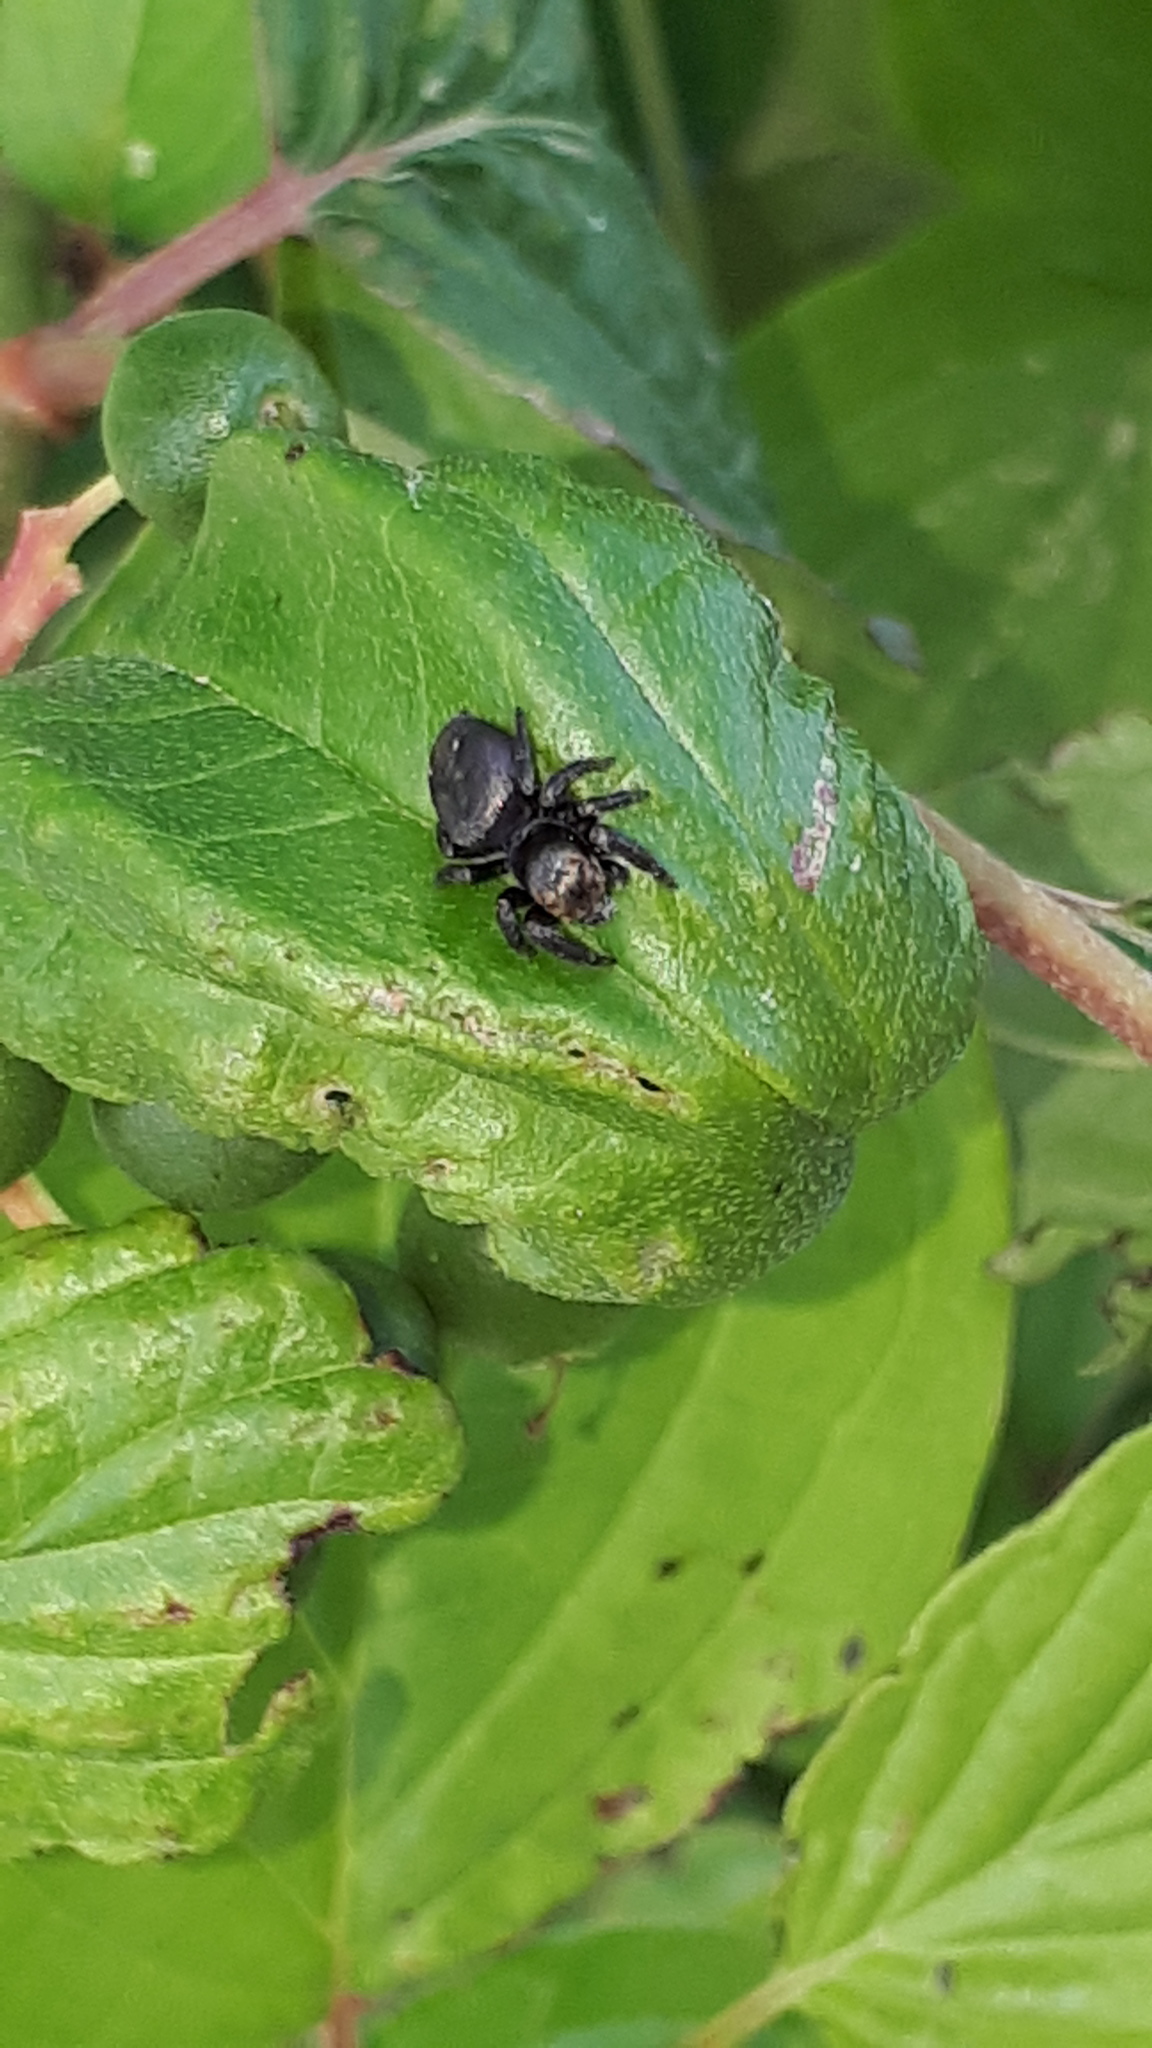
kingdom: Animalia
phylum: Arthropoda
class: Arachnida
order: Araneae
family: Salticidae
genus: Evarcha
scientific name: Evarcha arcuata
